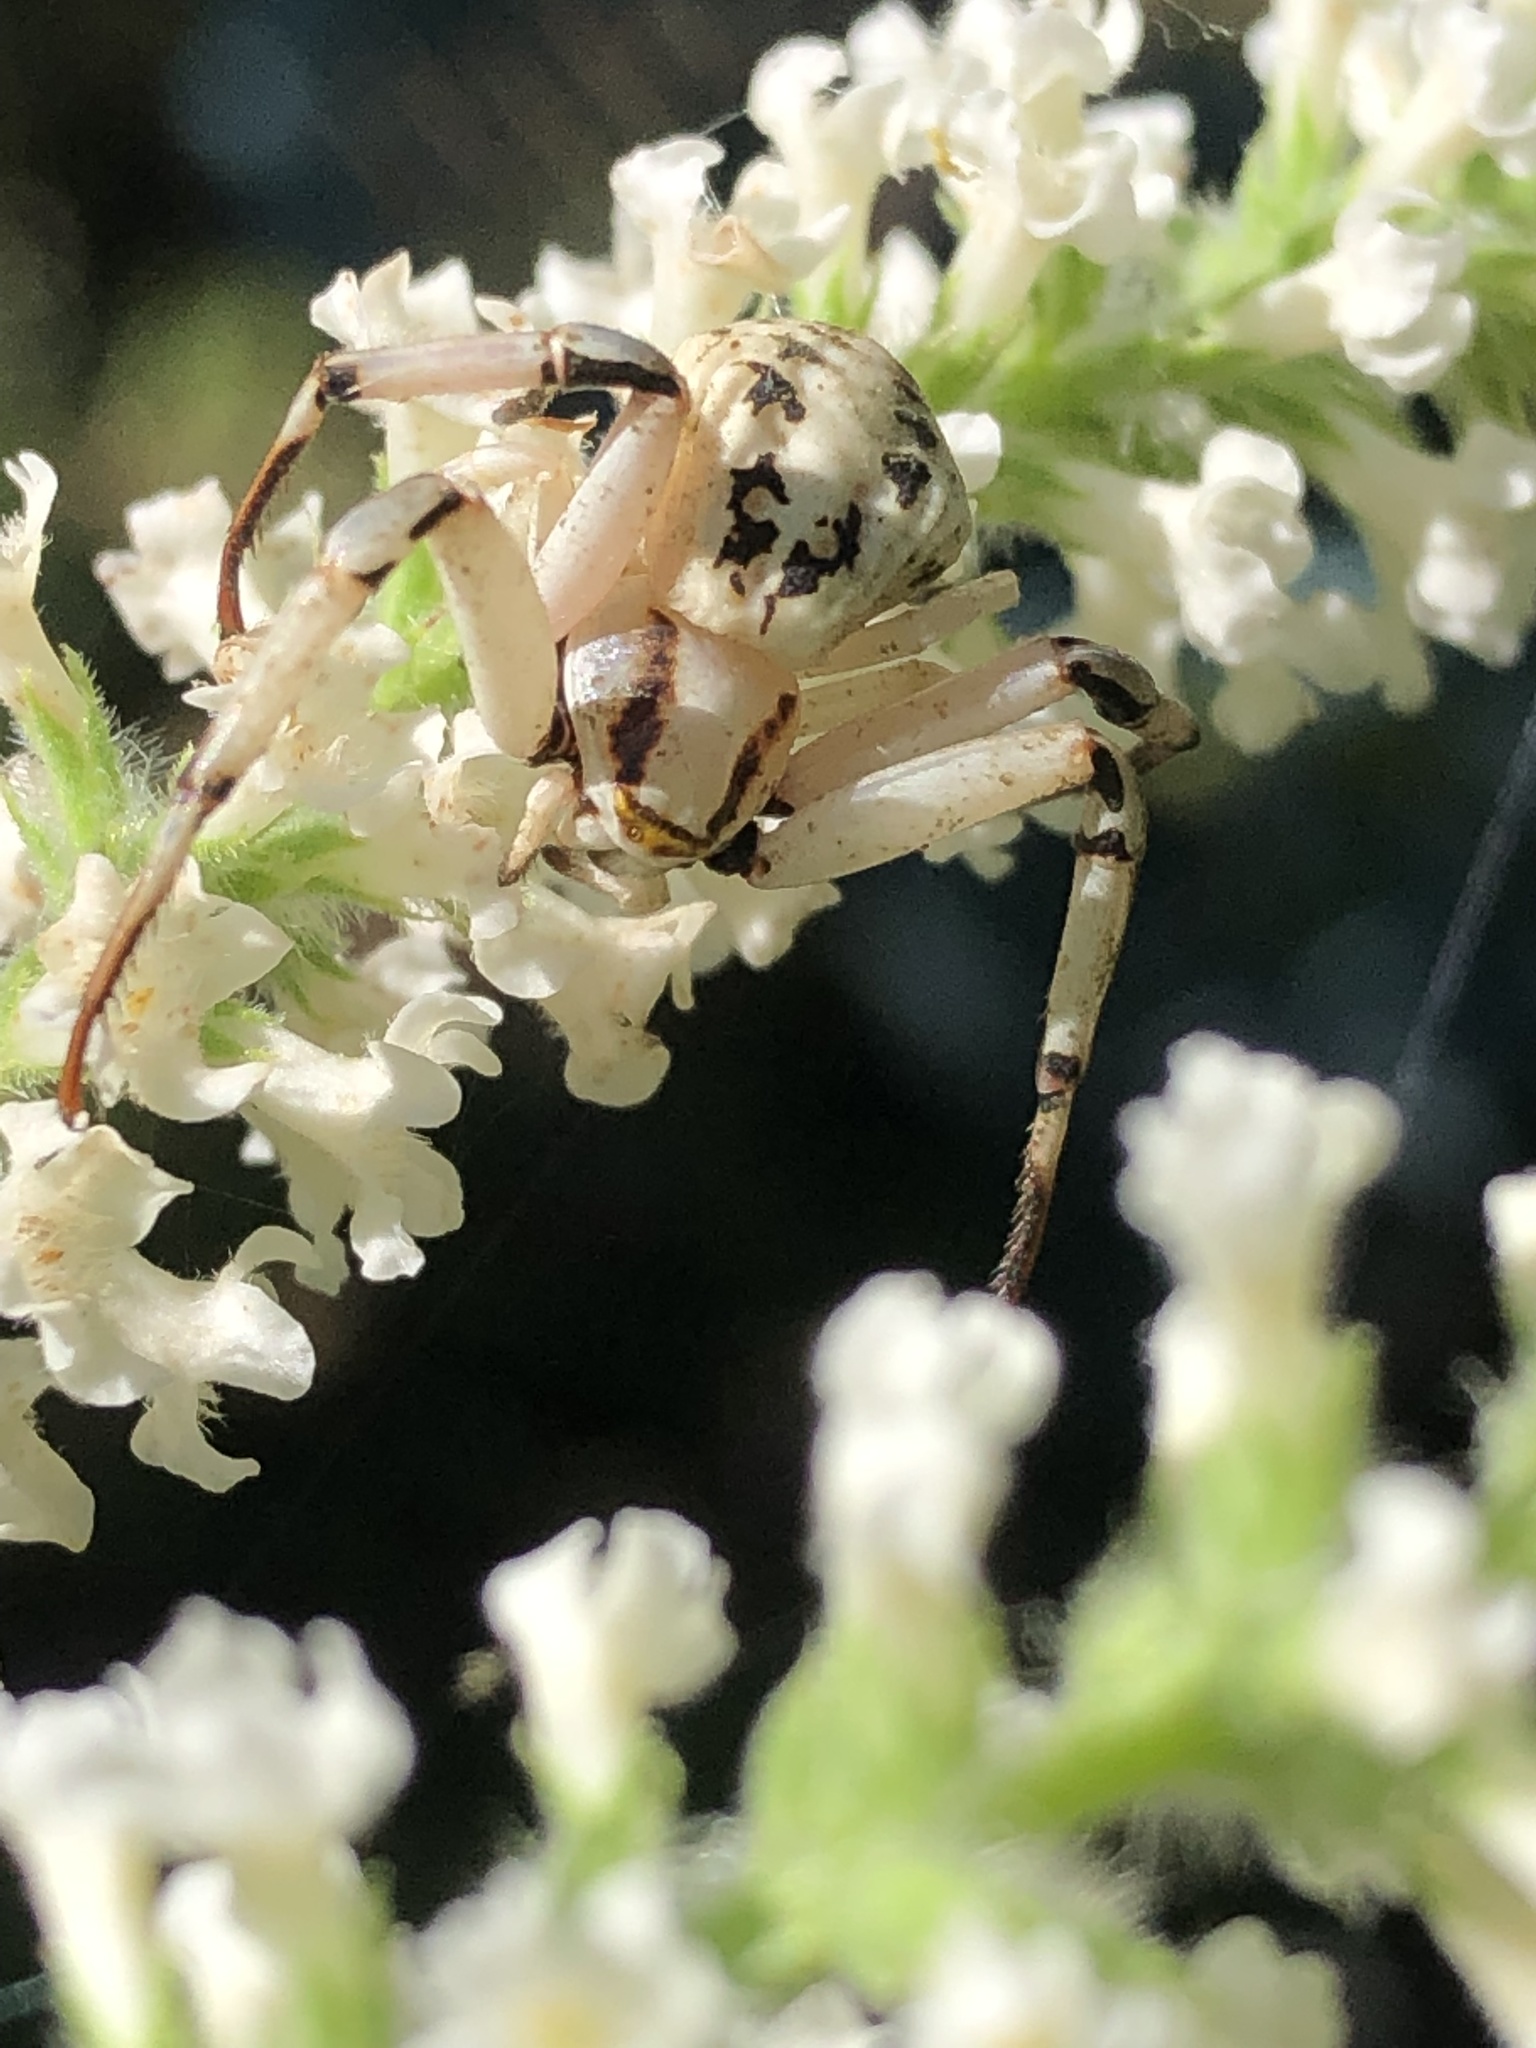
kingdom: Animalia
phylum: Arthropoda
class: Arachnida
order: Araneae
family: Thomisidae
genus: Misumenoides
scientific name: Misumenoides formosipes
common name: White-banded crab spider
